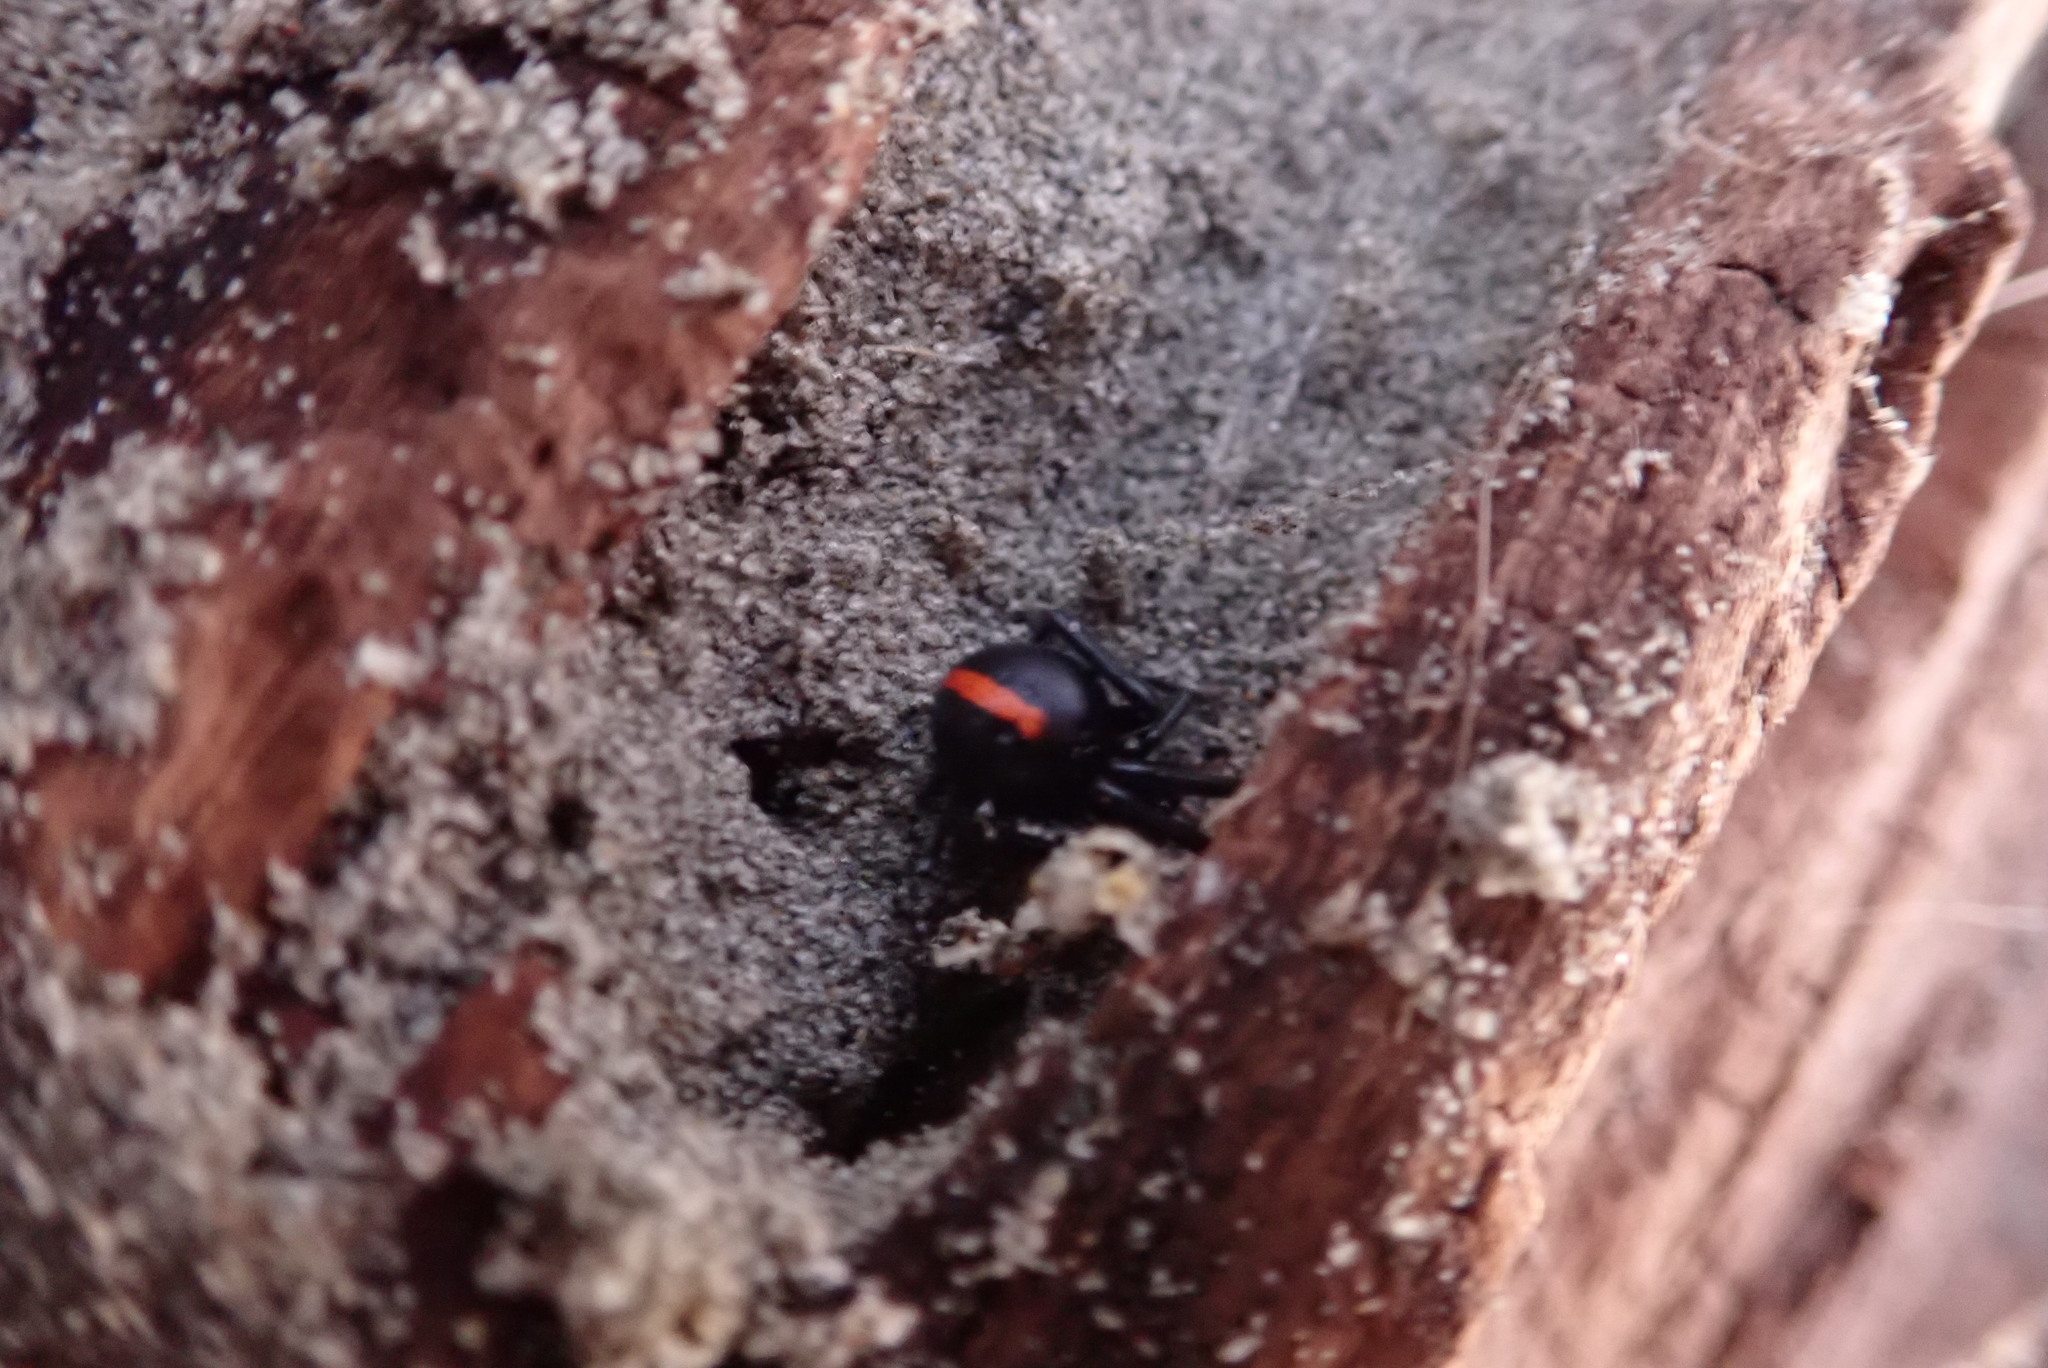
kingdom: Animalia
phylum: Arthropoda
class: Arachnida
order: Araneae
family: Theridiidae
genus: Latrodectus
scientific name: Latrodectus katipo
